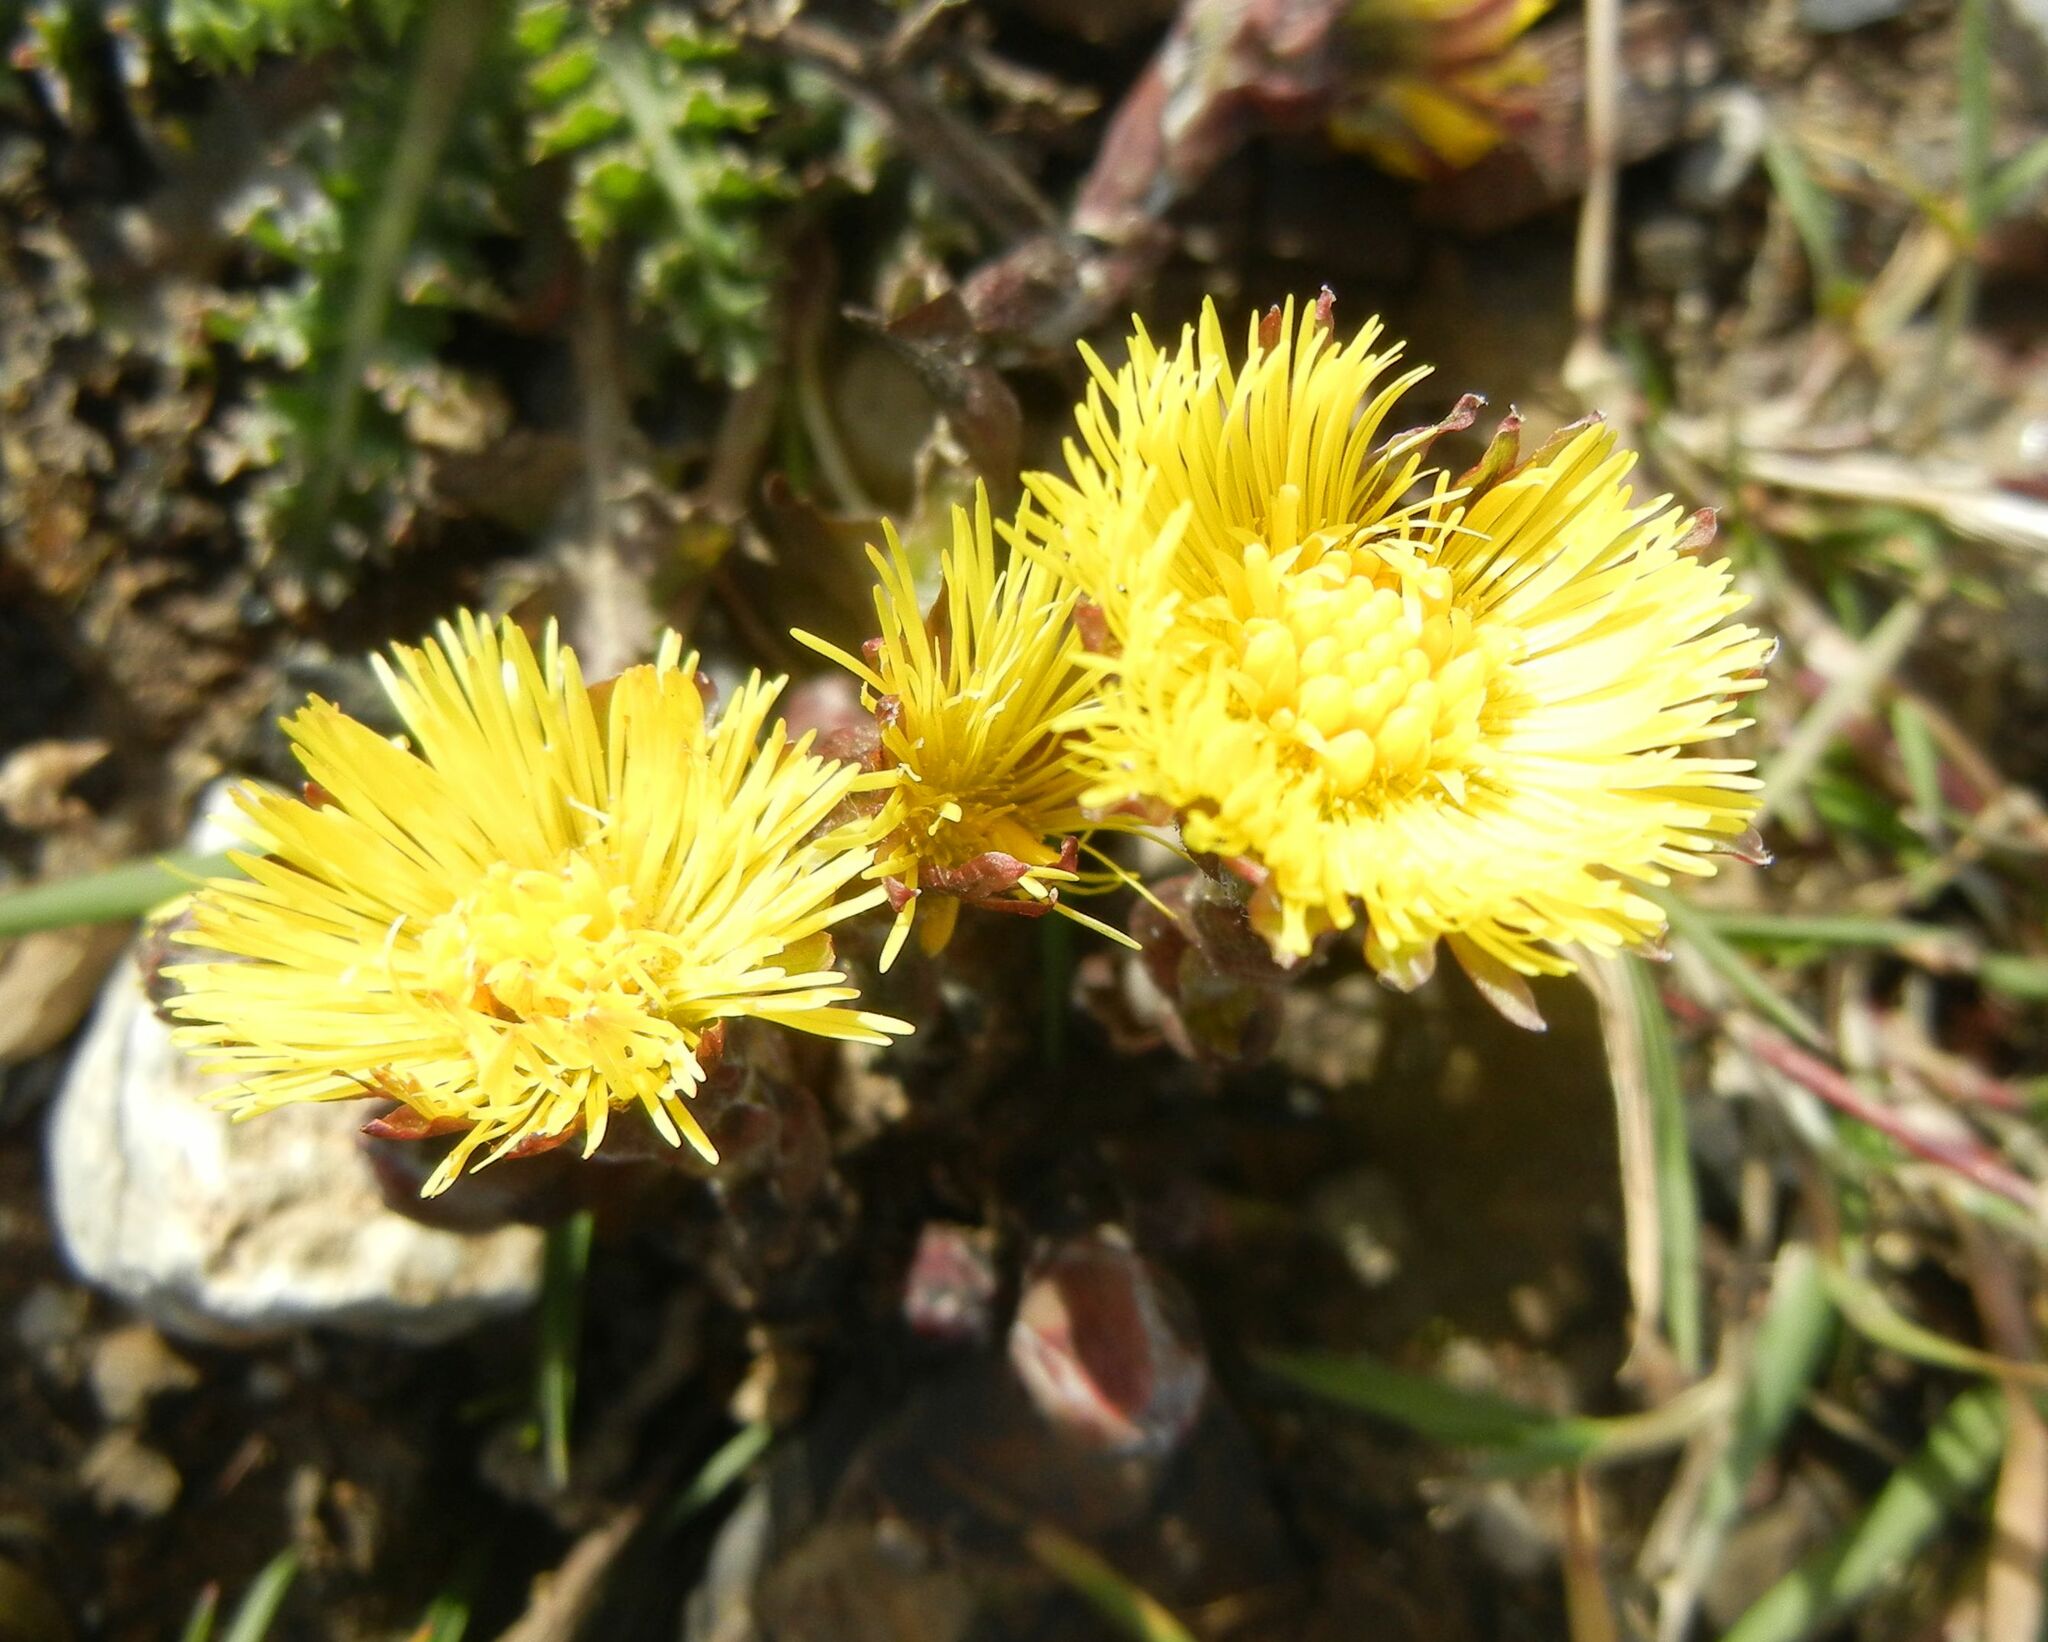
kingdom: Plantae
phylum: Tracheophyta
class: Magnoliopsida
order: Asterales
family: Asteraceae
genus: Tussilago
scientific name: Tussilago farfara
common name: Coltsfoot
